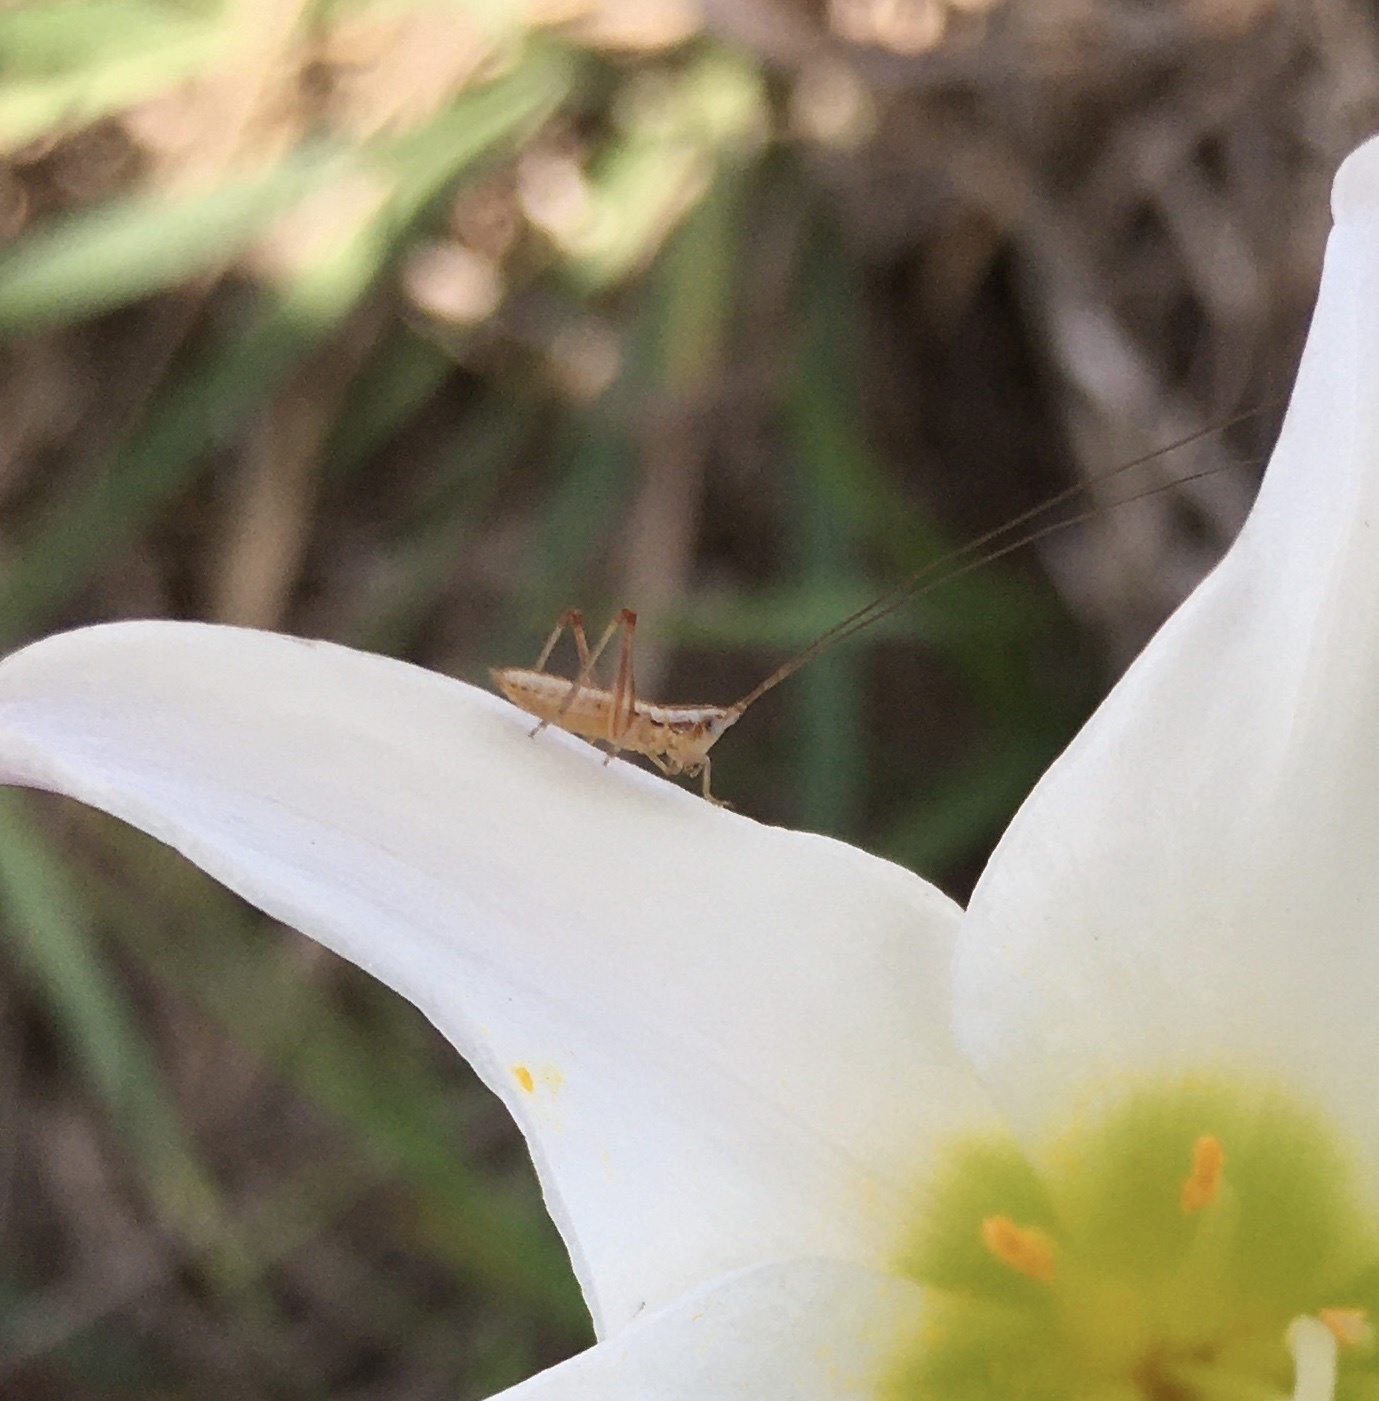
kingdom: Animalia
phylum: Arthropoda
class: Insecta
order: Orthoptera
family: Tettigoniidae
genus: Conocephalus
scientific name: Conocephalus gracillimus
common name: Graceful meadow katydid
